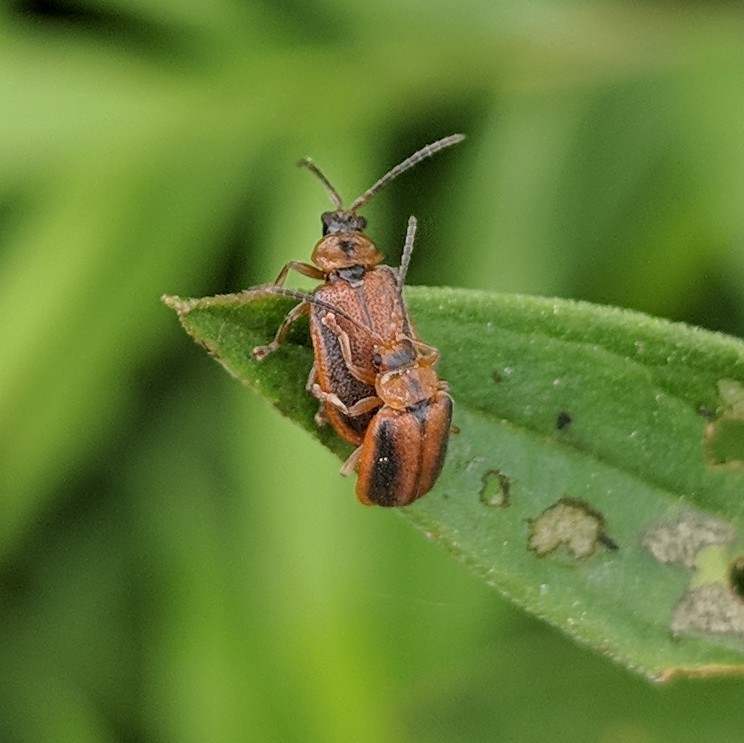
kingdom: Animalia
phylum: Arthropoda
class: Insecta
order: Coleoptera
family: Chrysomelidae
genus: Neogalerucella
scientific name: Neogalerucella calmariensis
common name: Black-margined loosestrife beetle
